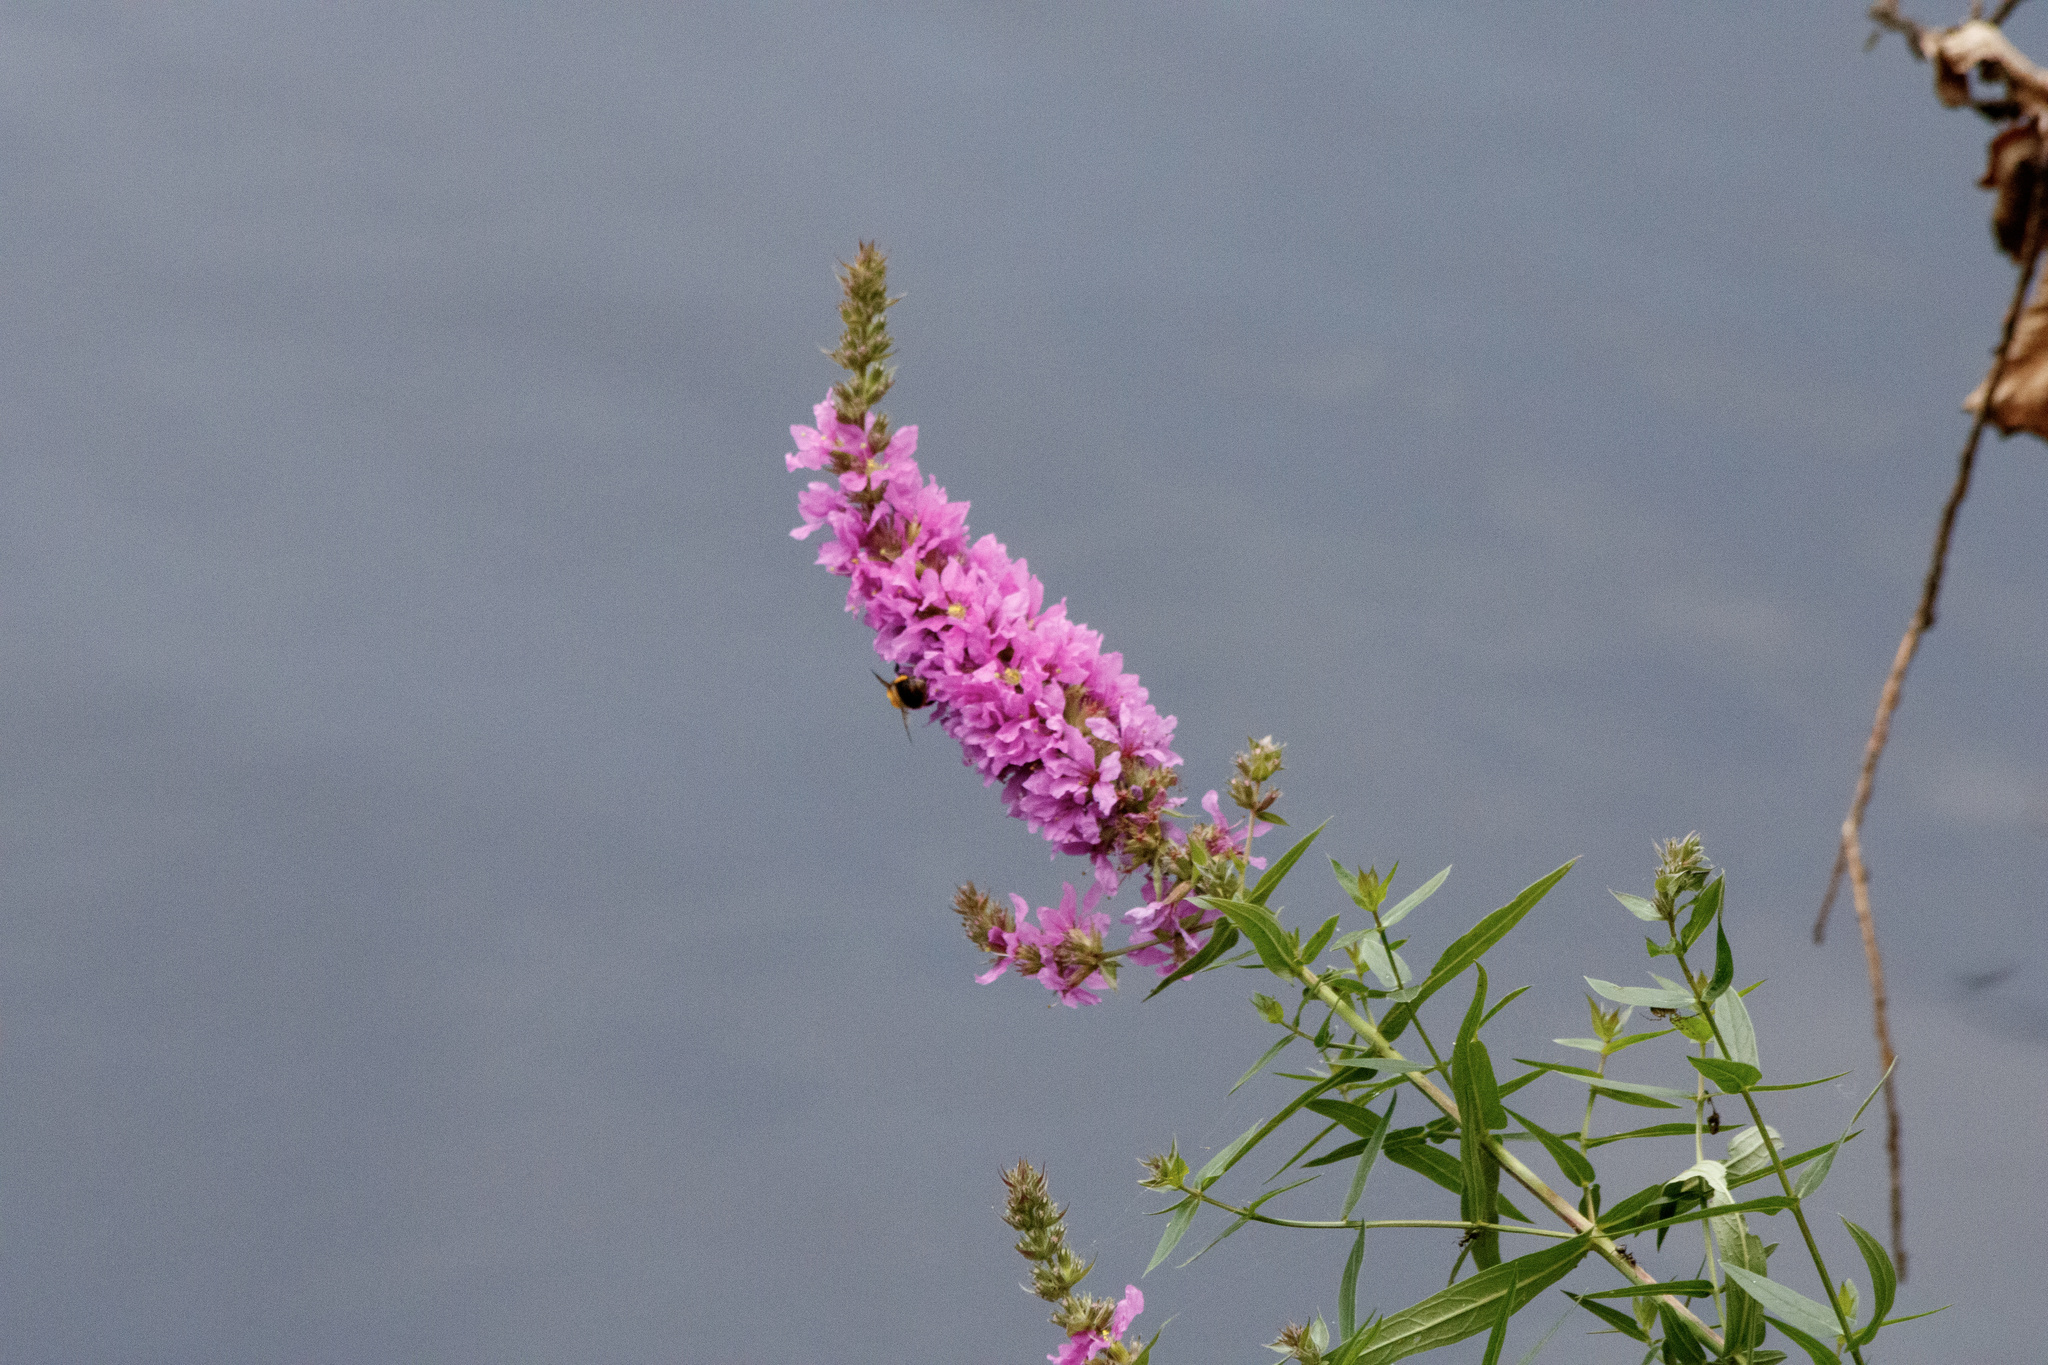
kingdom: Plantae
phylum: Tracheophyta
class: Magnoliopsida
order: Myrtales
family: Lythraceae
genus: Lythrum
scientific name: Lythrum salicaria
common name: Purple loosestrife
